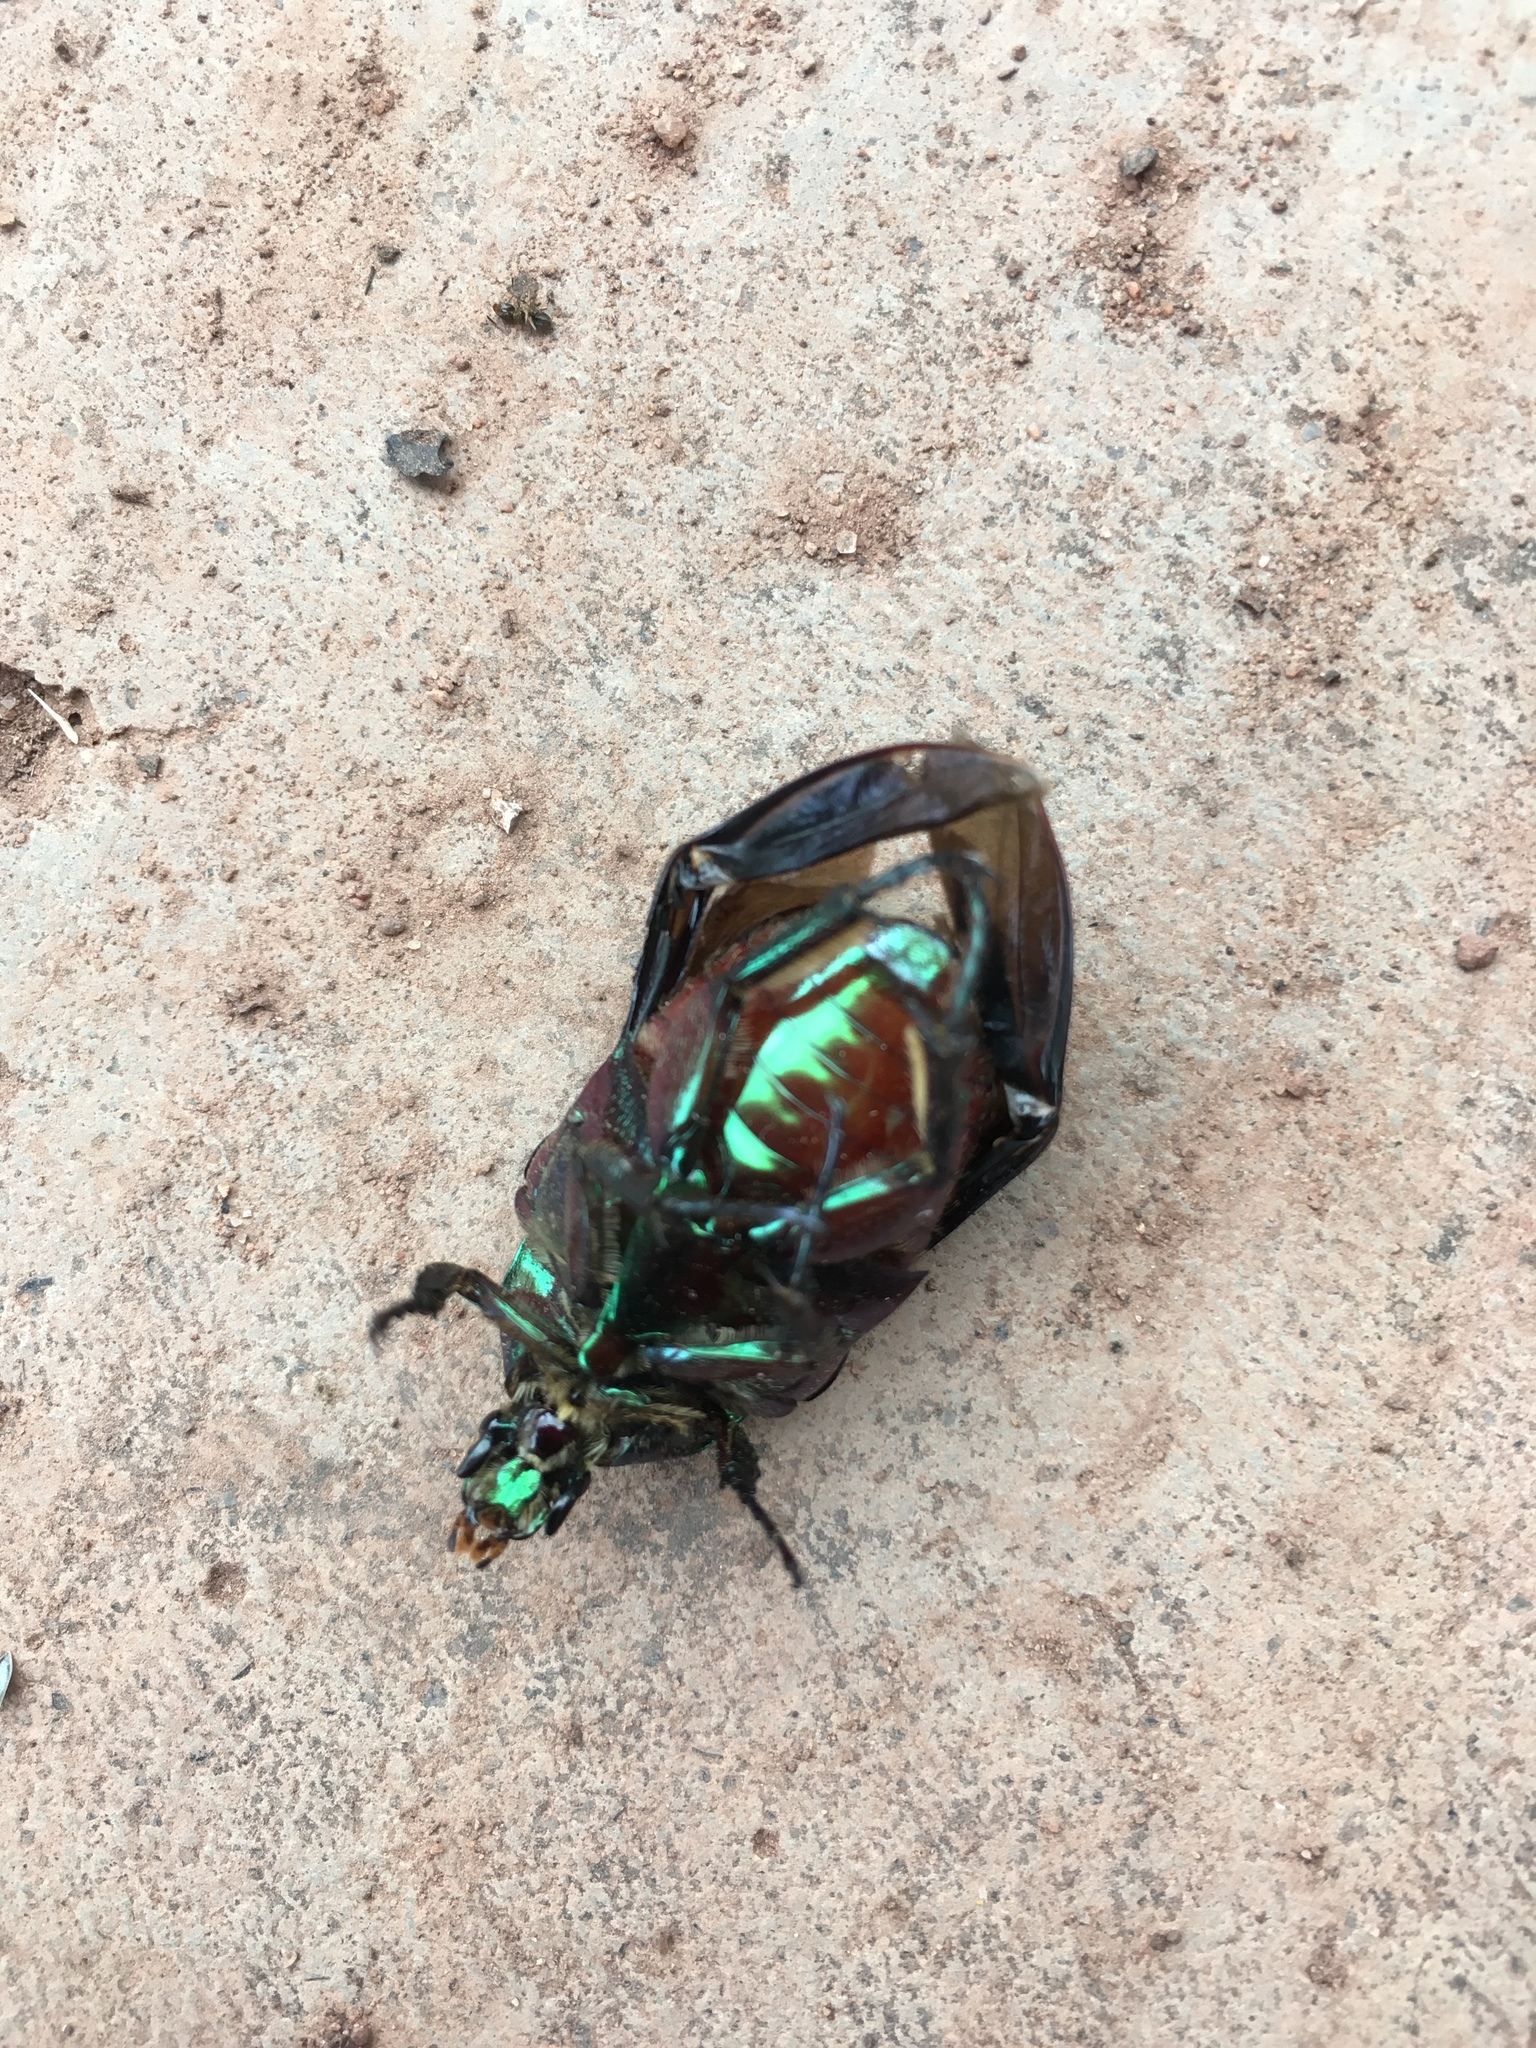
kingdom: Animalia
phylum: Arthropoda
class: Insecta
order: Coleoptera
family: Scarabaeidae
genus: Cotinis
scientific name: Cotinis mutabilis
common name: Figeater beetle
